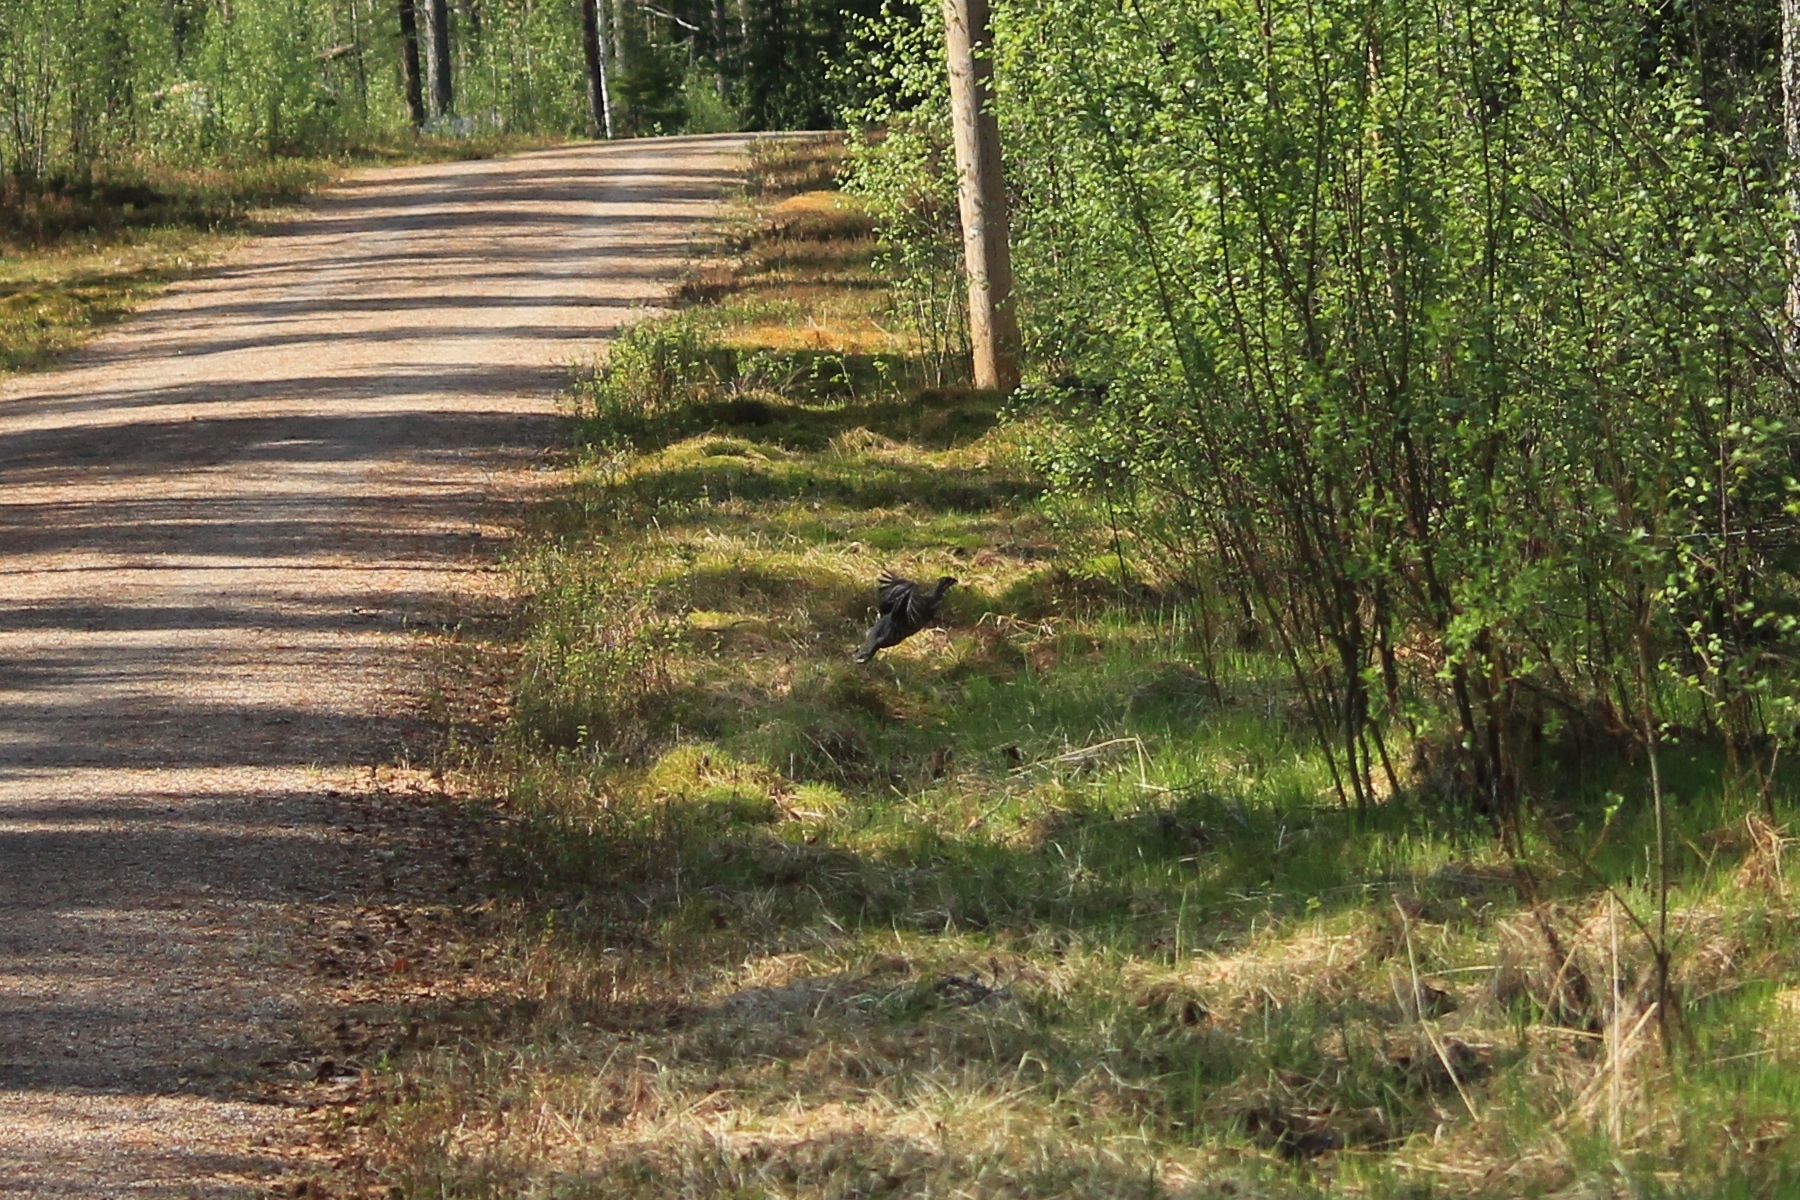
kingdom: Animalia
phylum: Chordata
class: Aves
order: Galliformes
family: Phasianidae
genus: Tetrastes
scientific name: Tetrastes bonasia
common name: Hazel grouse
